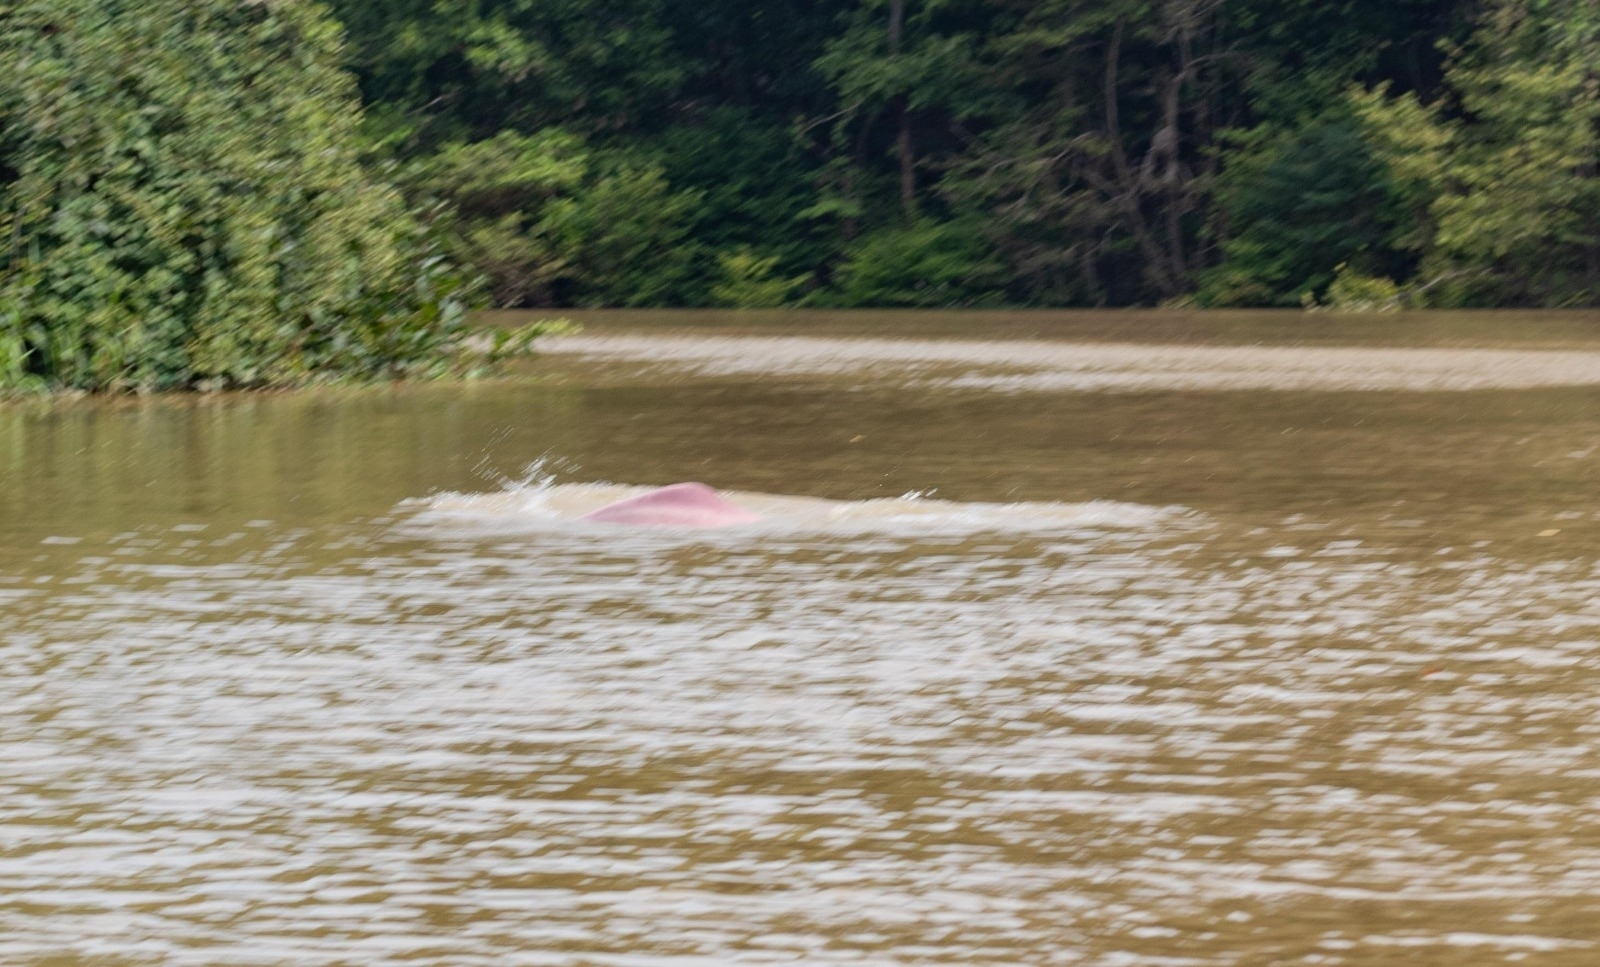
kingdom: Animalia
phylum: Chordata
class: Mammalia
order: Cetacea
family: Iniidae
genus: Inia
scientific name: Inia geoffrensis
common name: Amazon river dolphin
